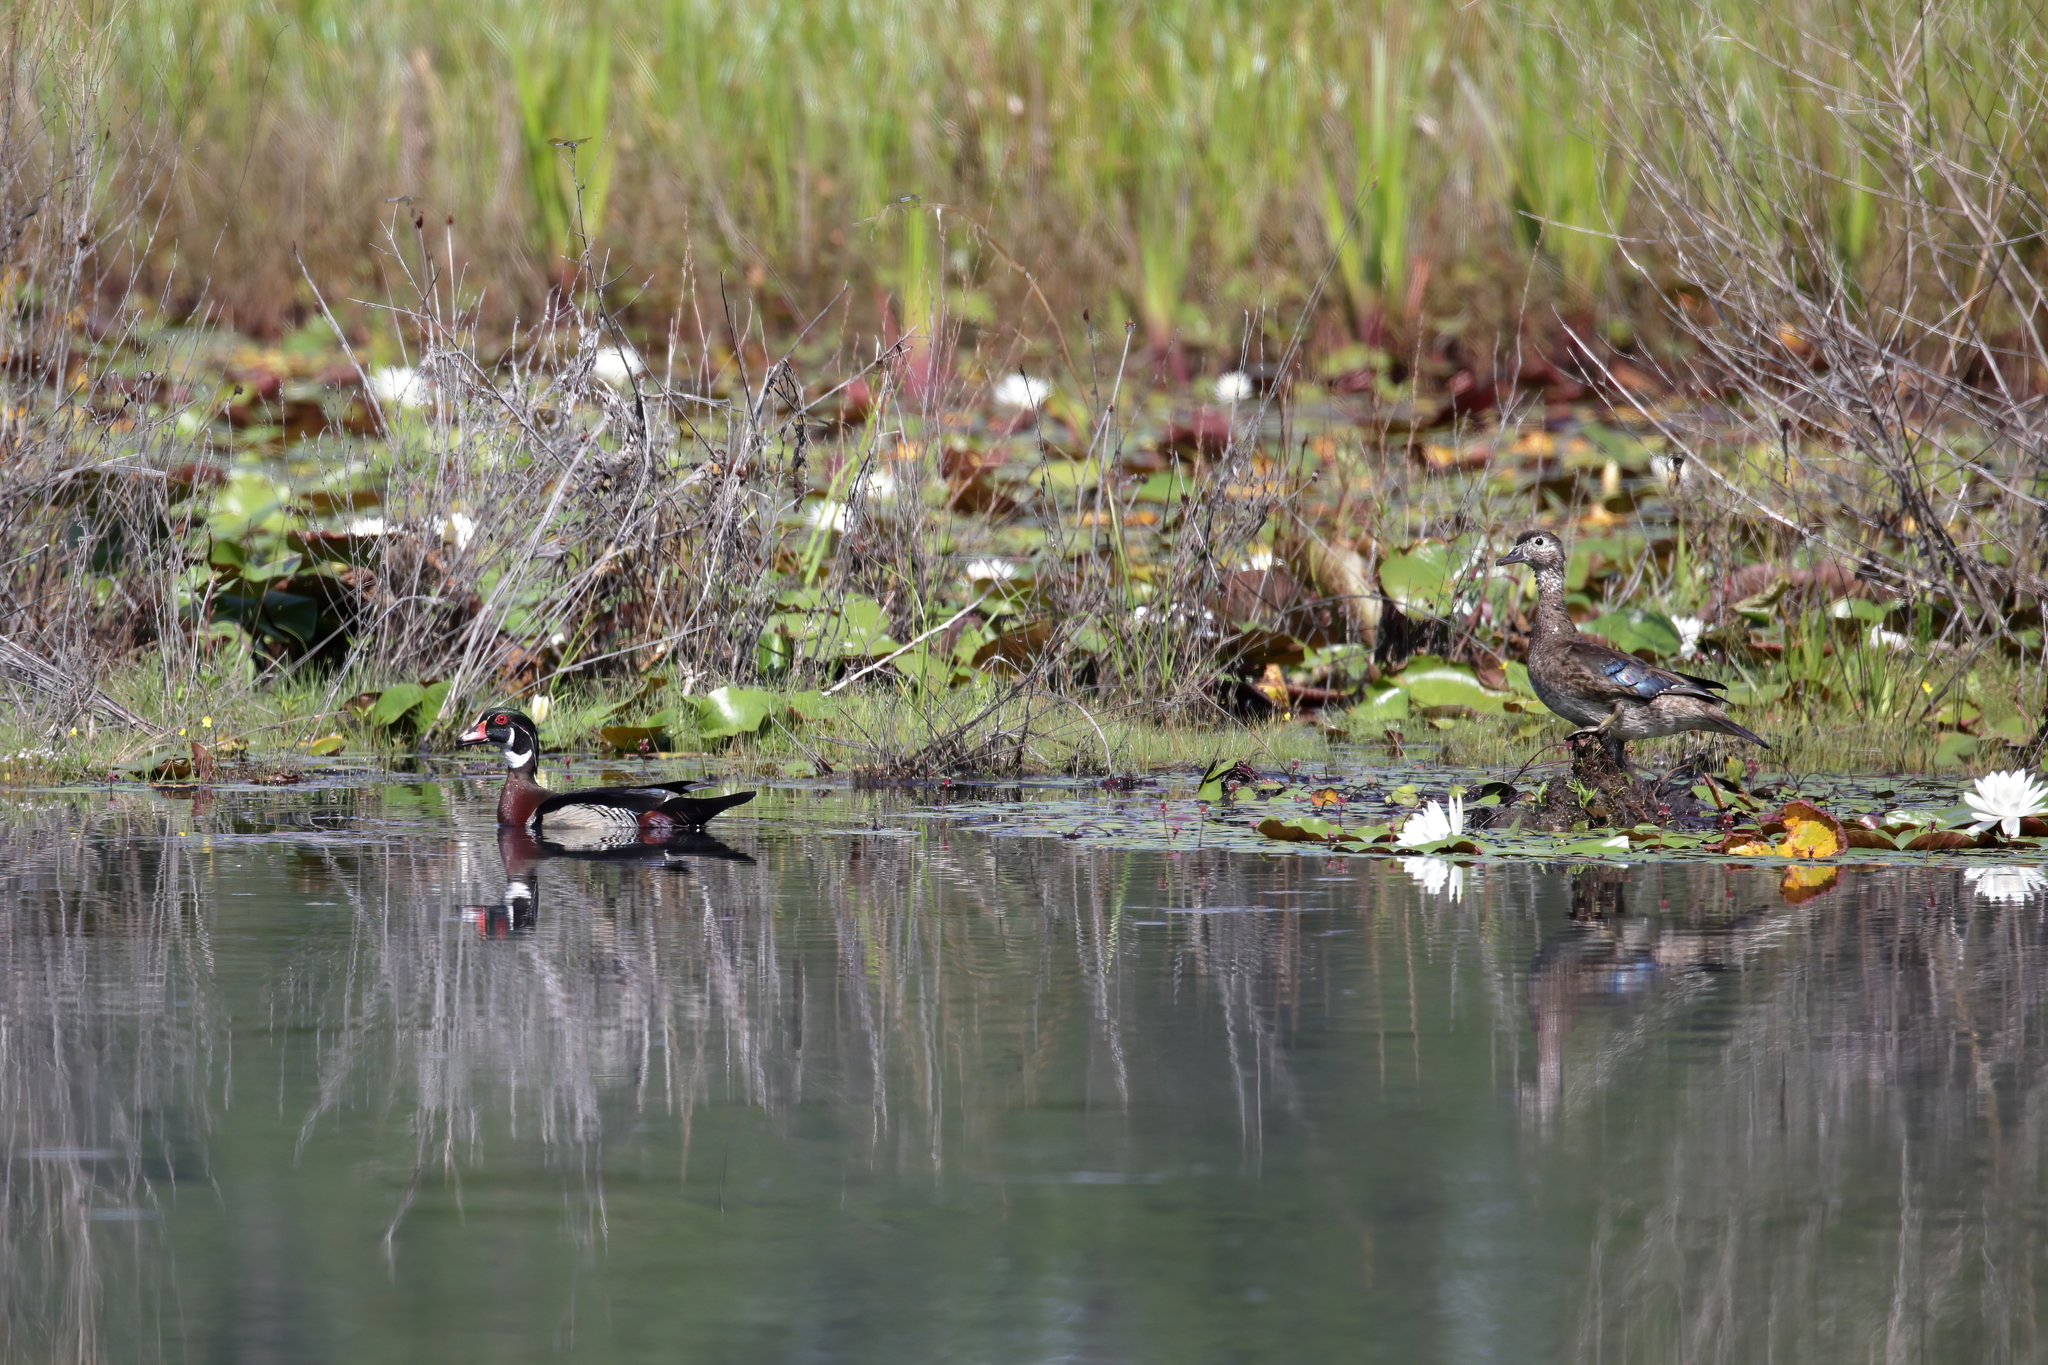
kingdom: Animalia
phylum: Chordata
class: Aves
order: Anseriformes
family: Anatidae
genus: Aix
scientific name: Aix sponsa
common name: Wood duck
